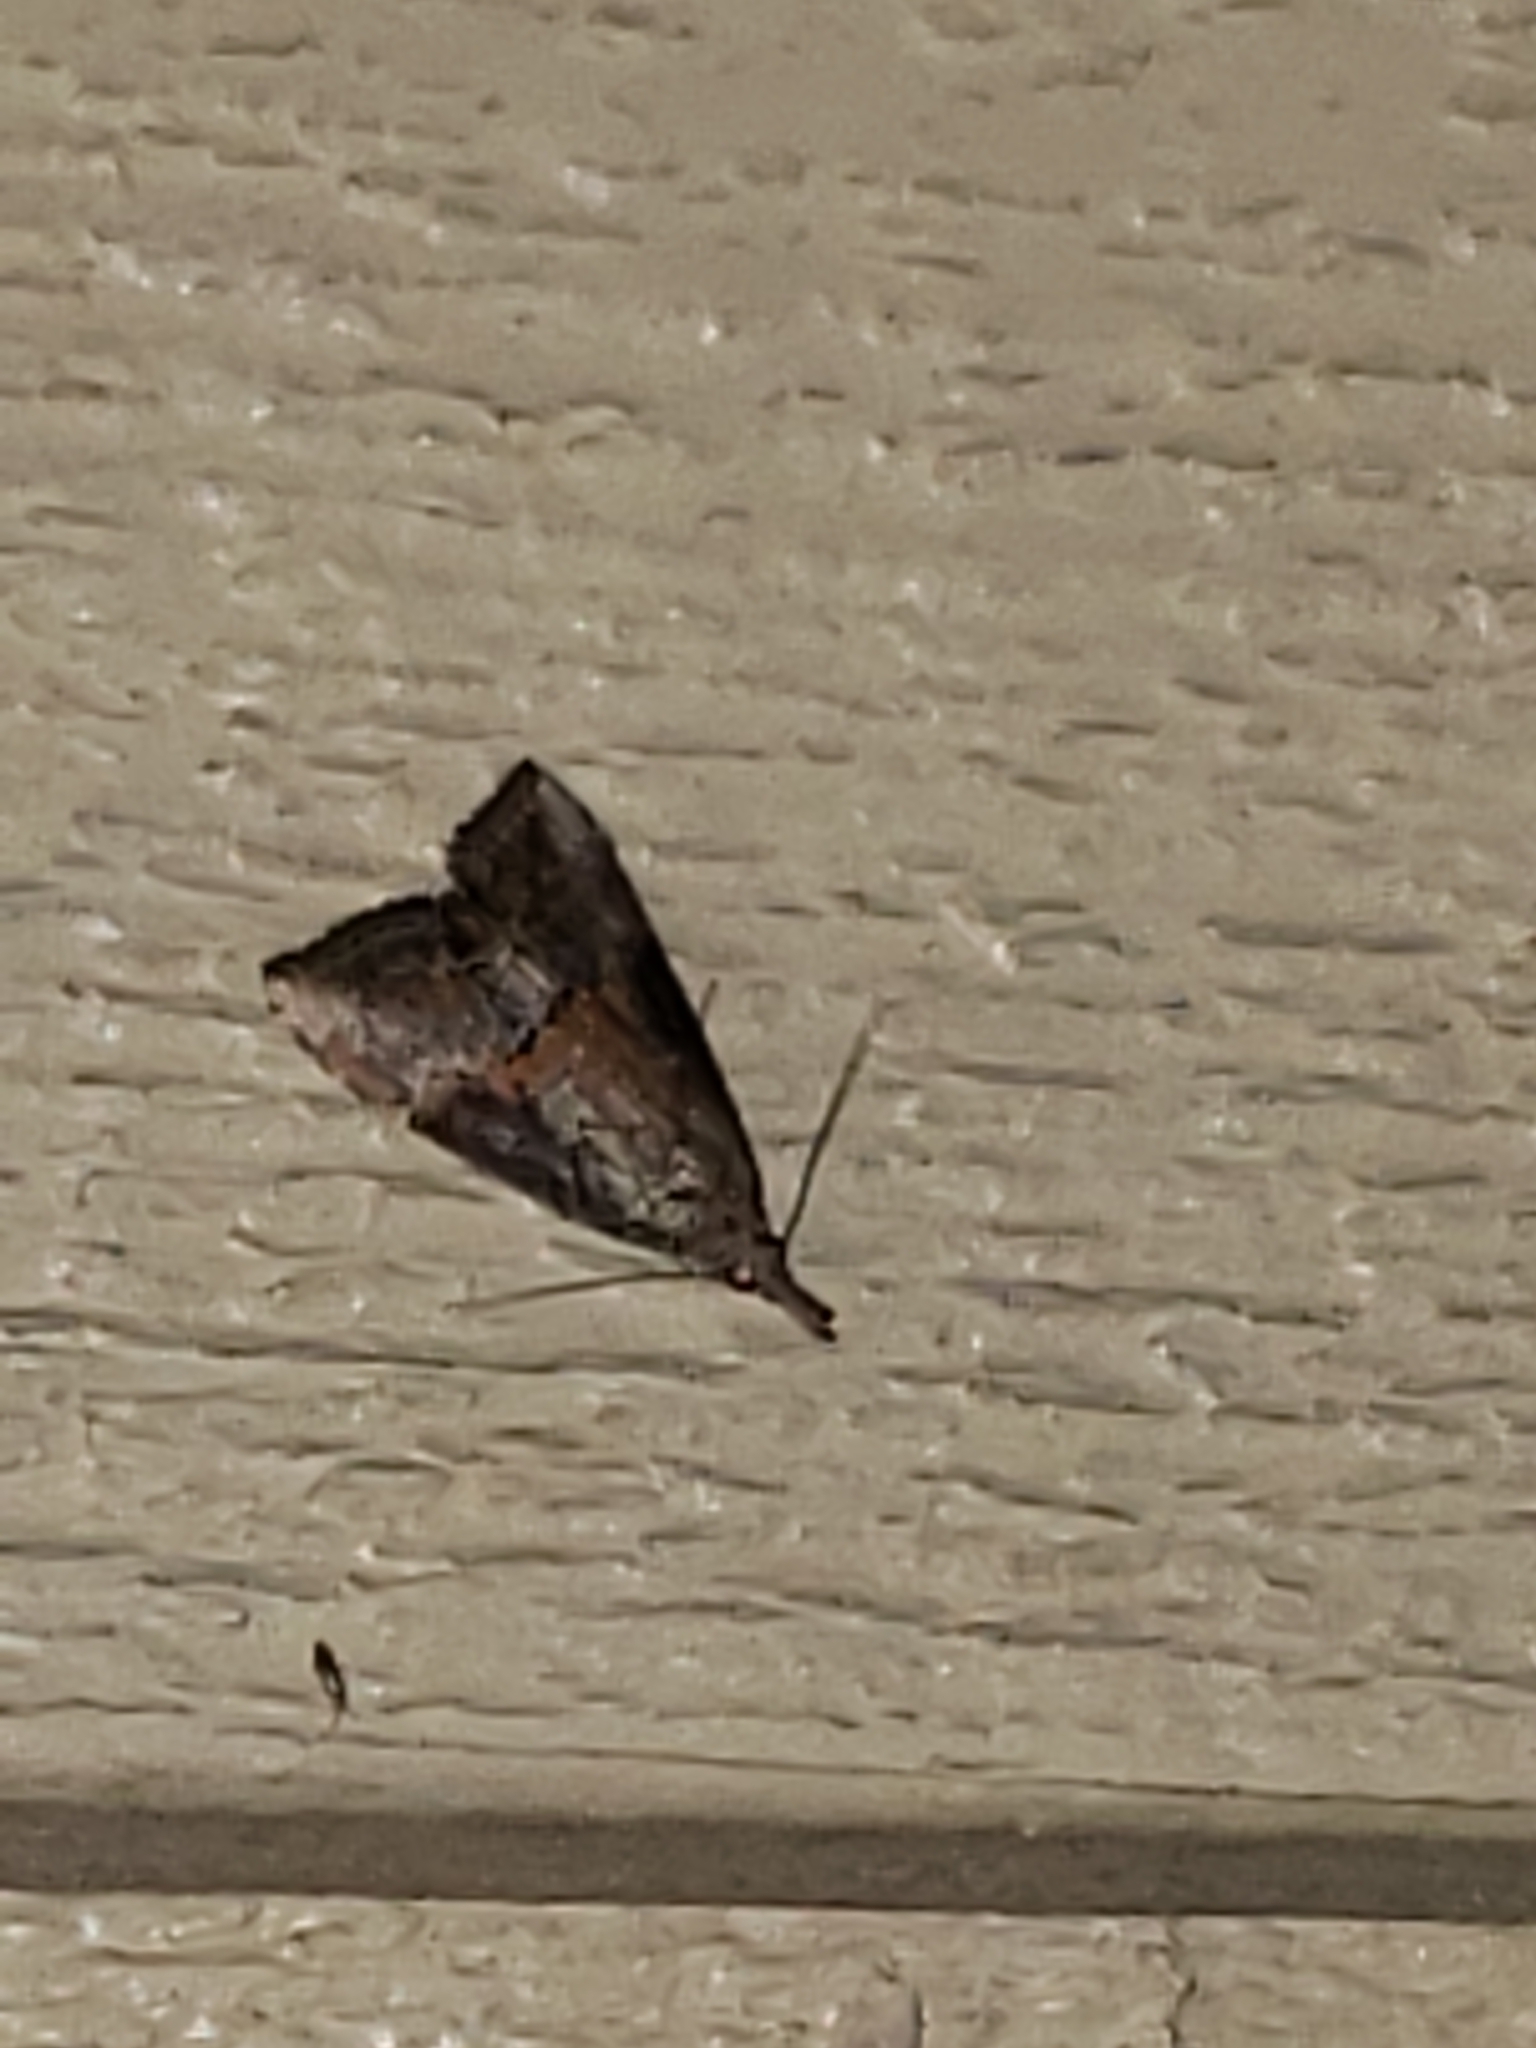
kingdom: Animalia
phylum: Arthropoda
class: Insecta
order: Lepidoptera
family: Erebidae
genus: Hypena
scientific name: Hypena scabra
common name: Green cloverworm
